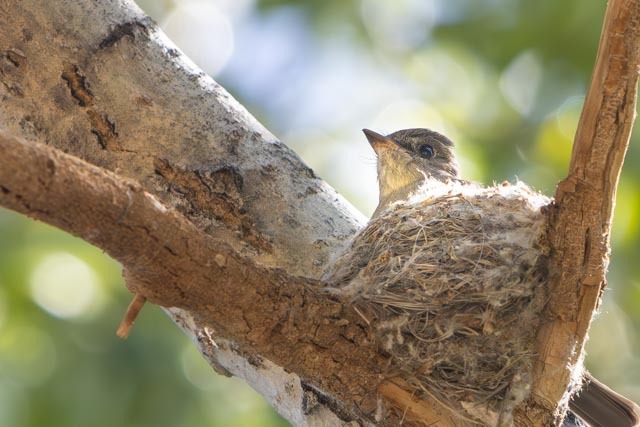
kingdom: Animalia
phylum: Chordata
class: Aves
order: Passeriformes
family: Tyrannidae
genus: Contopus
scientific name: Contopus sordidulus
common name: Western wood-pewee
